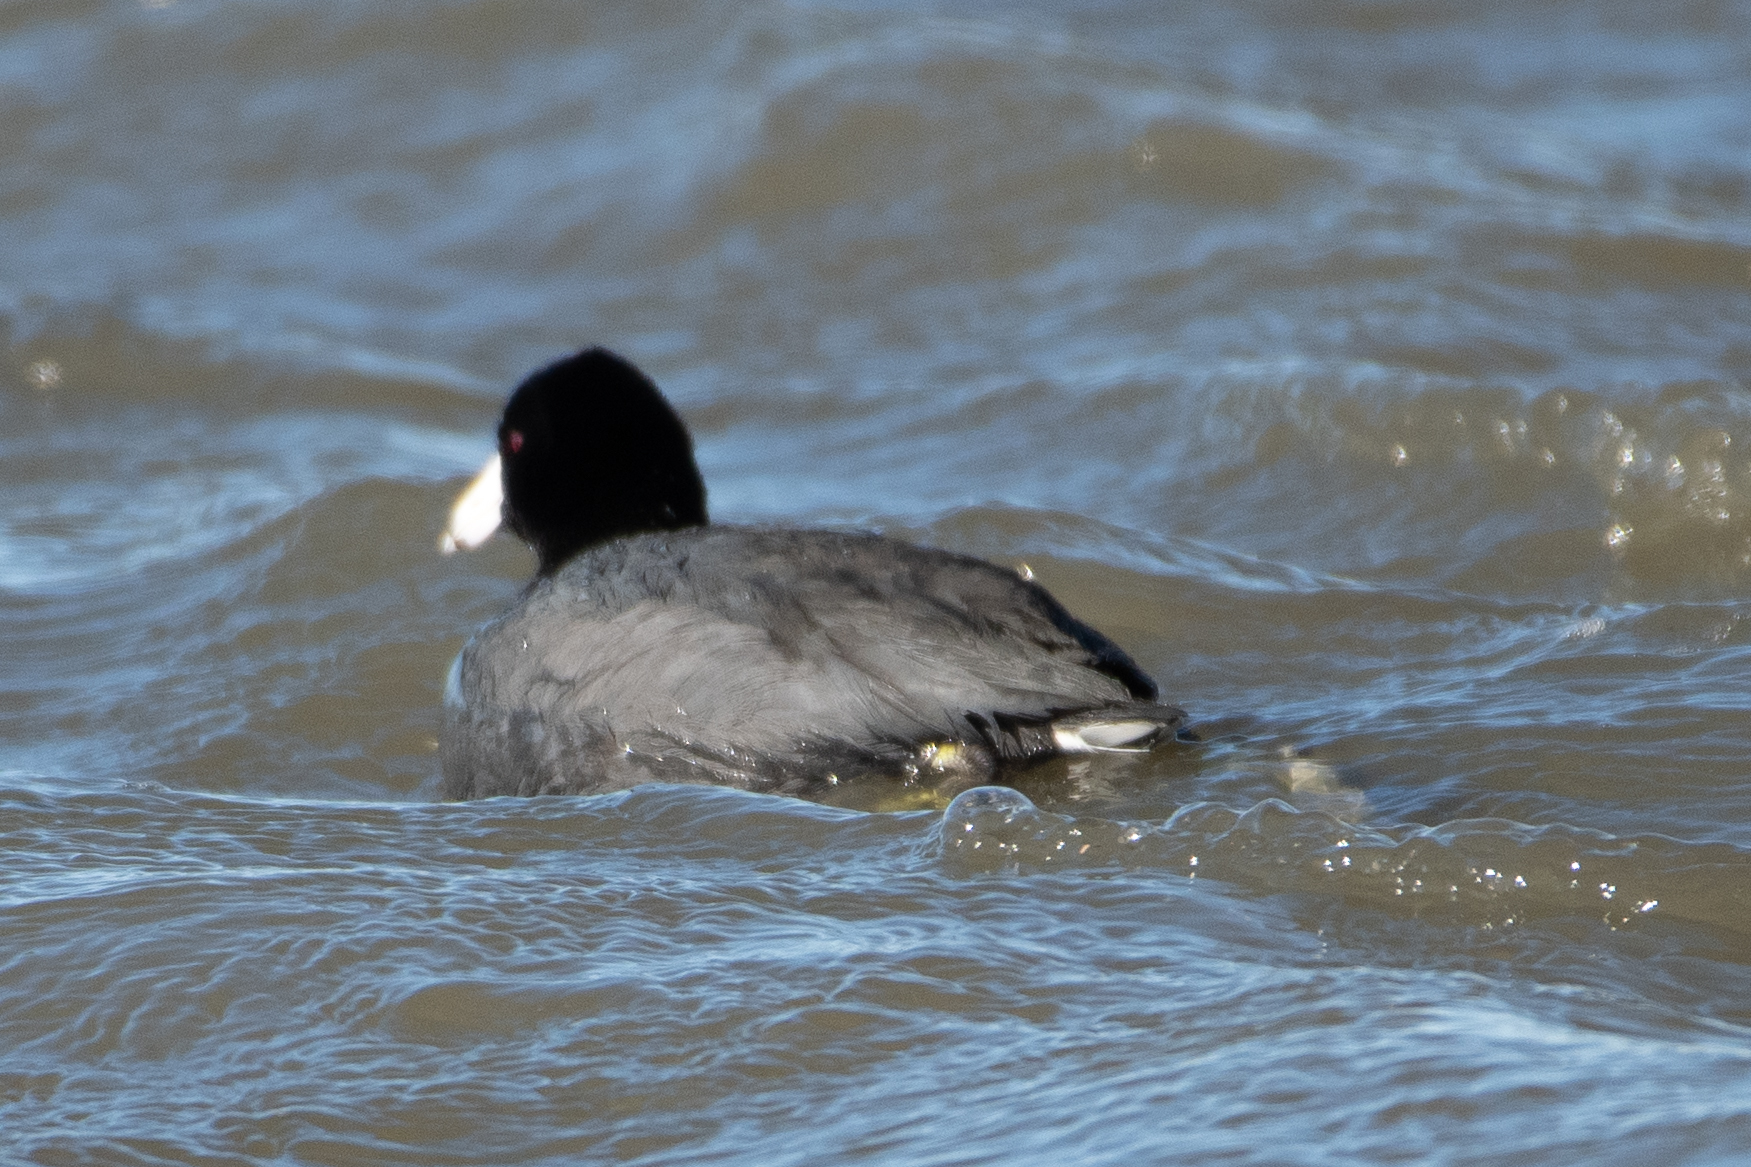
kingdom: Animalia
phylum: Chordata
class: Aves
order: Gruiformes
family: Rallidae
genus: Fulica
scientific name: Fulica americana
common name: American coot
